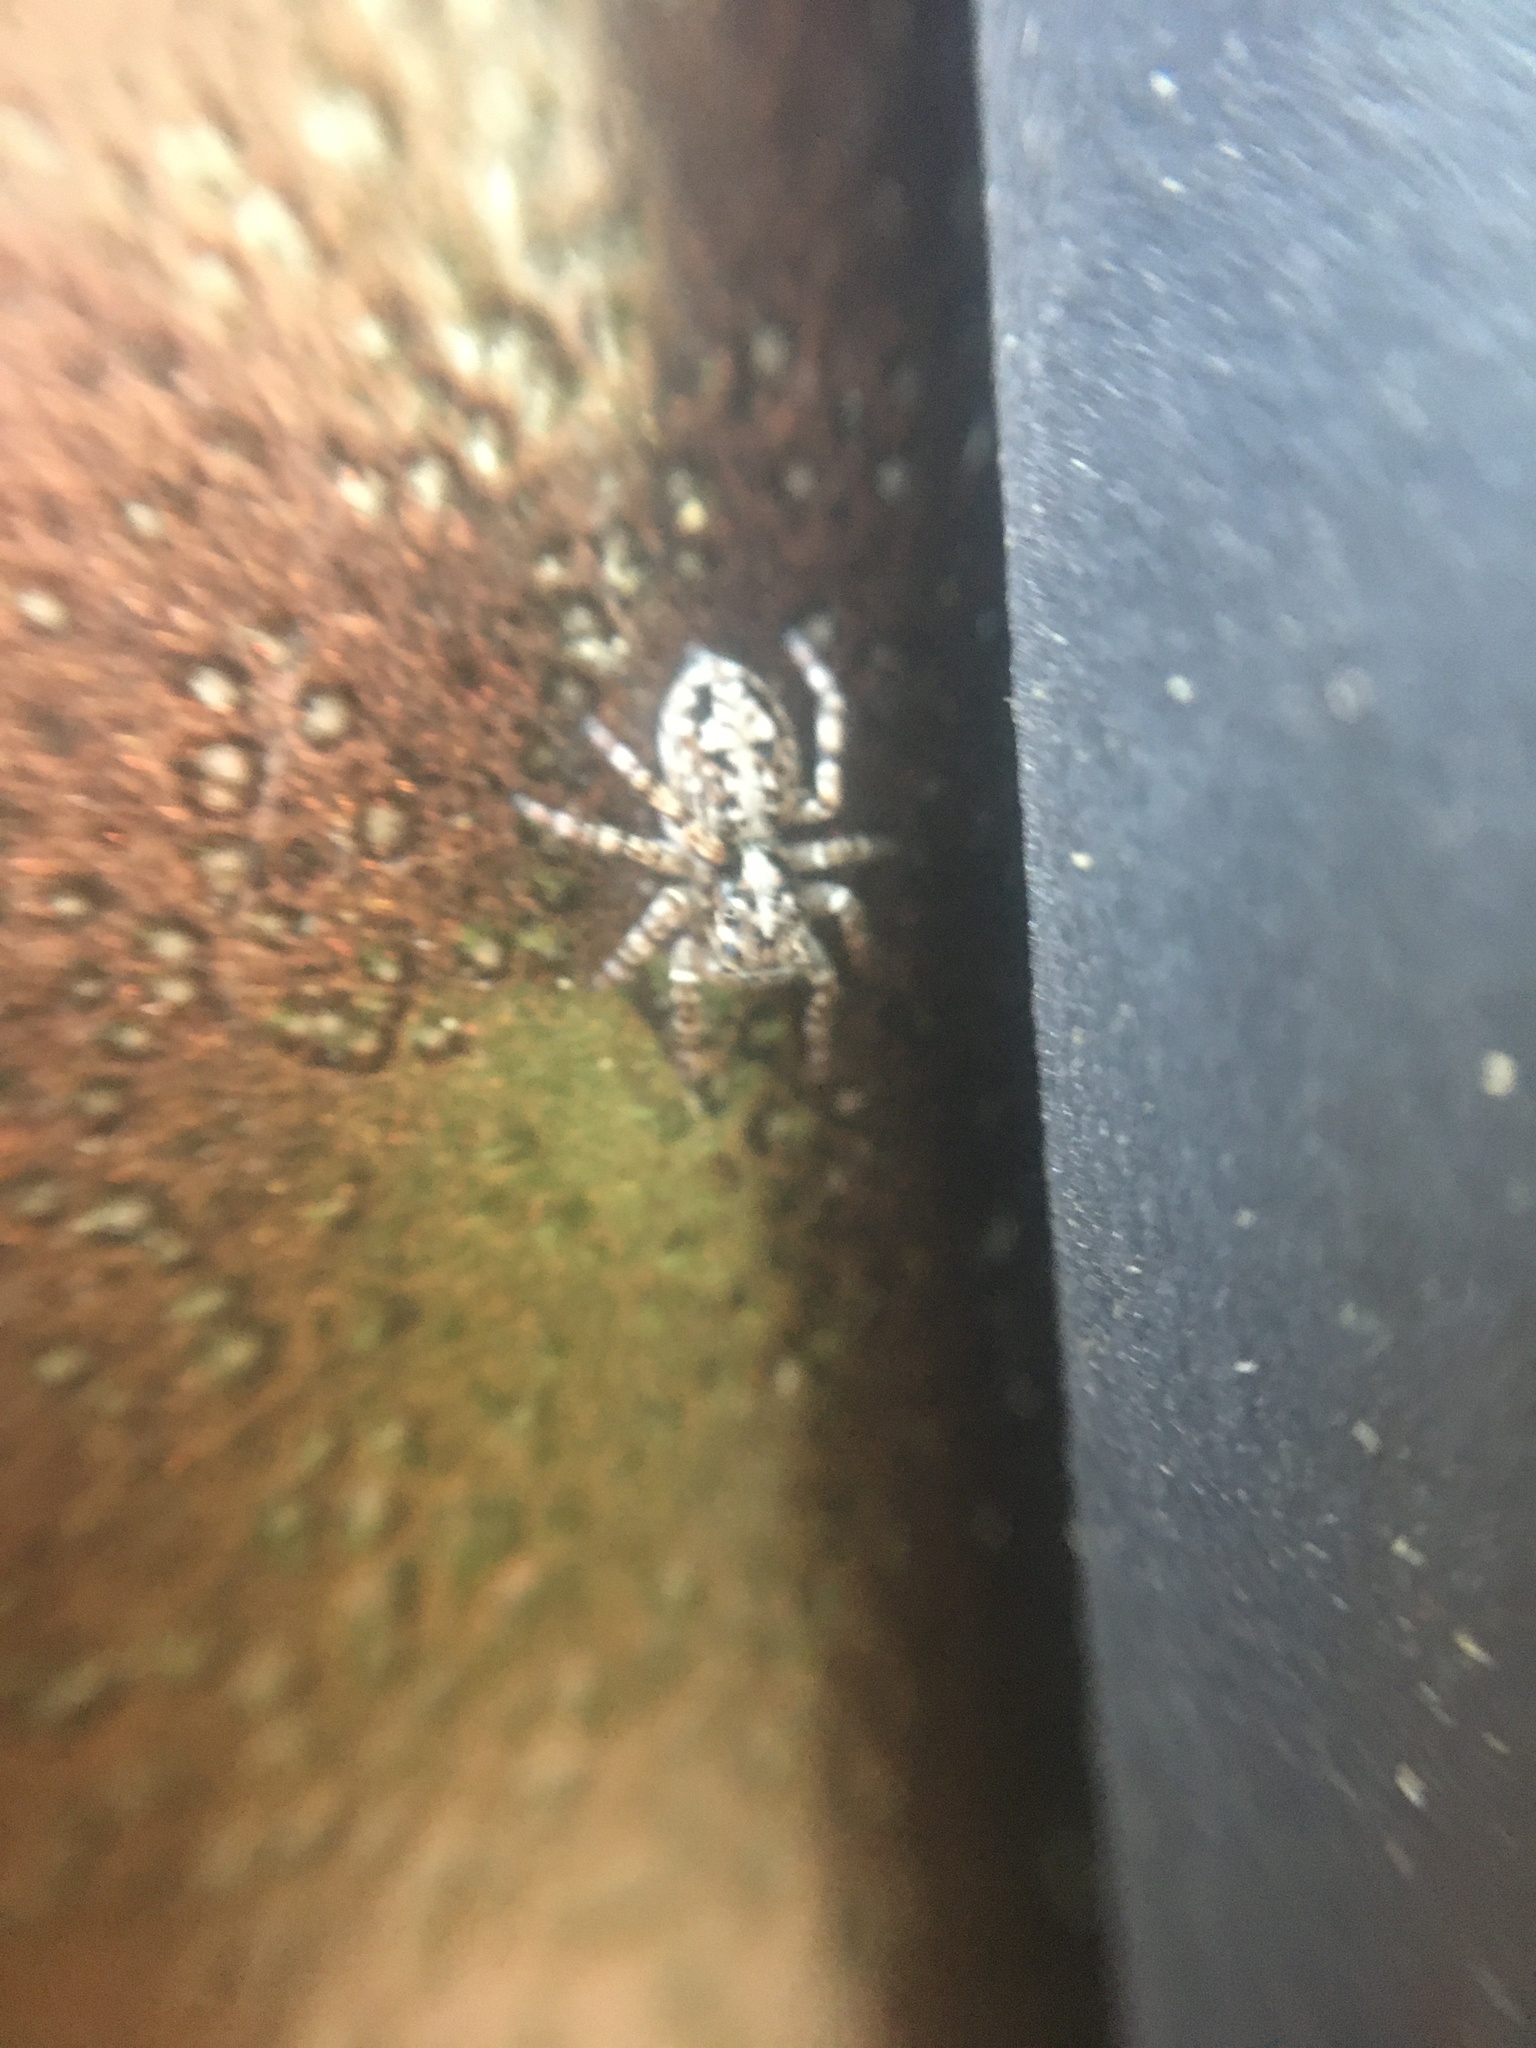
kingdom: Animalia
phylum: Arthropoda
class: Arachnida
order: Araneae
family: Salticidae
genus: Attulus
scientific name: Attulus terebratus
